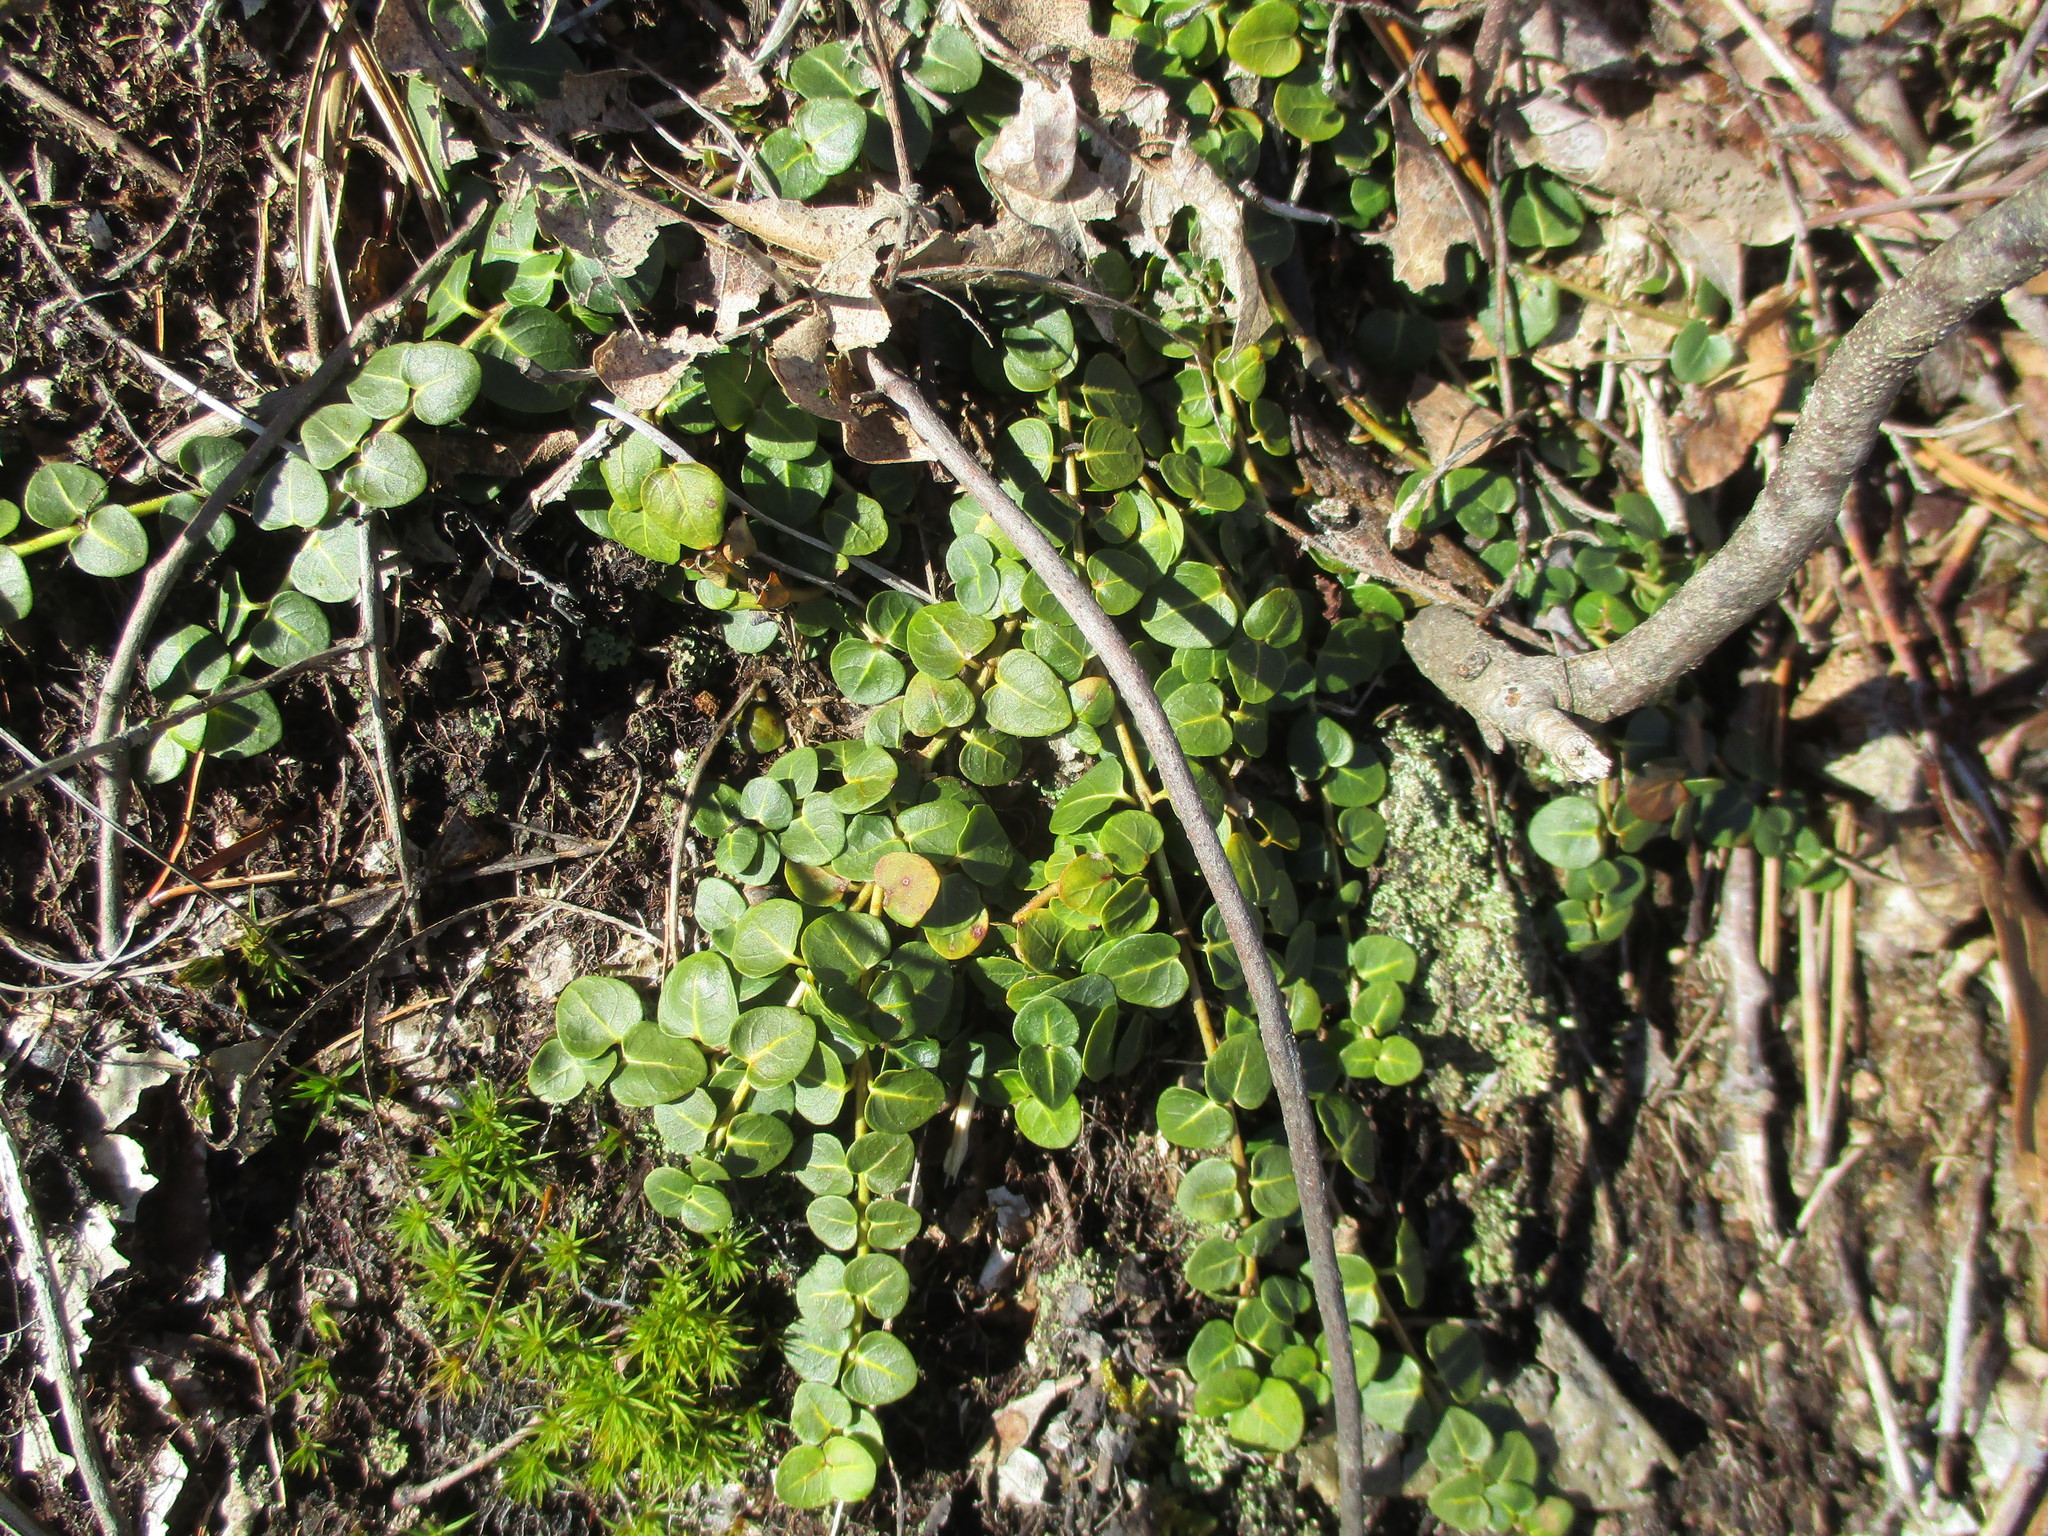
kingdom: Plantae
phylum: Tracheophyta
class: Magnoliopsida
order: Gentianales
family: Rubiaceae
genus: Mitchella
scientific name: Mitchella repens
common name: Partridge-berry
